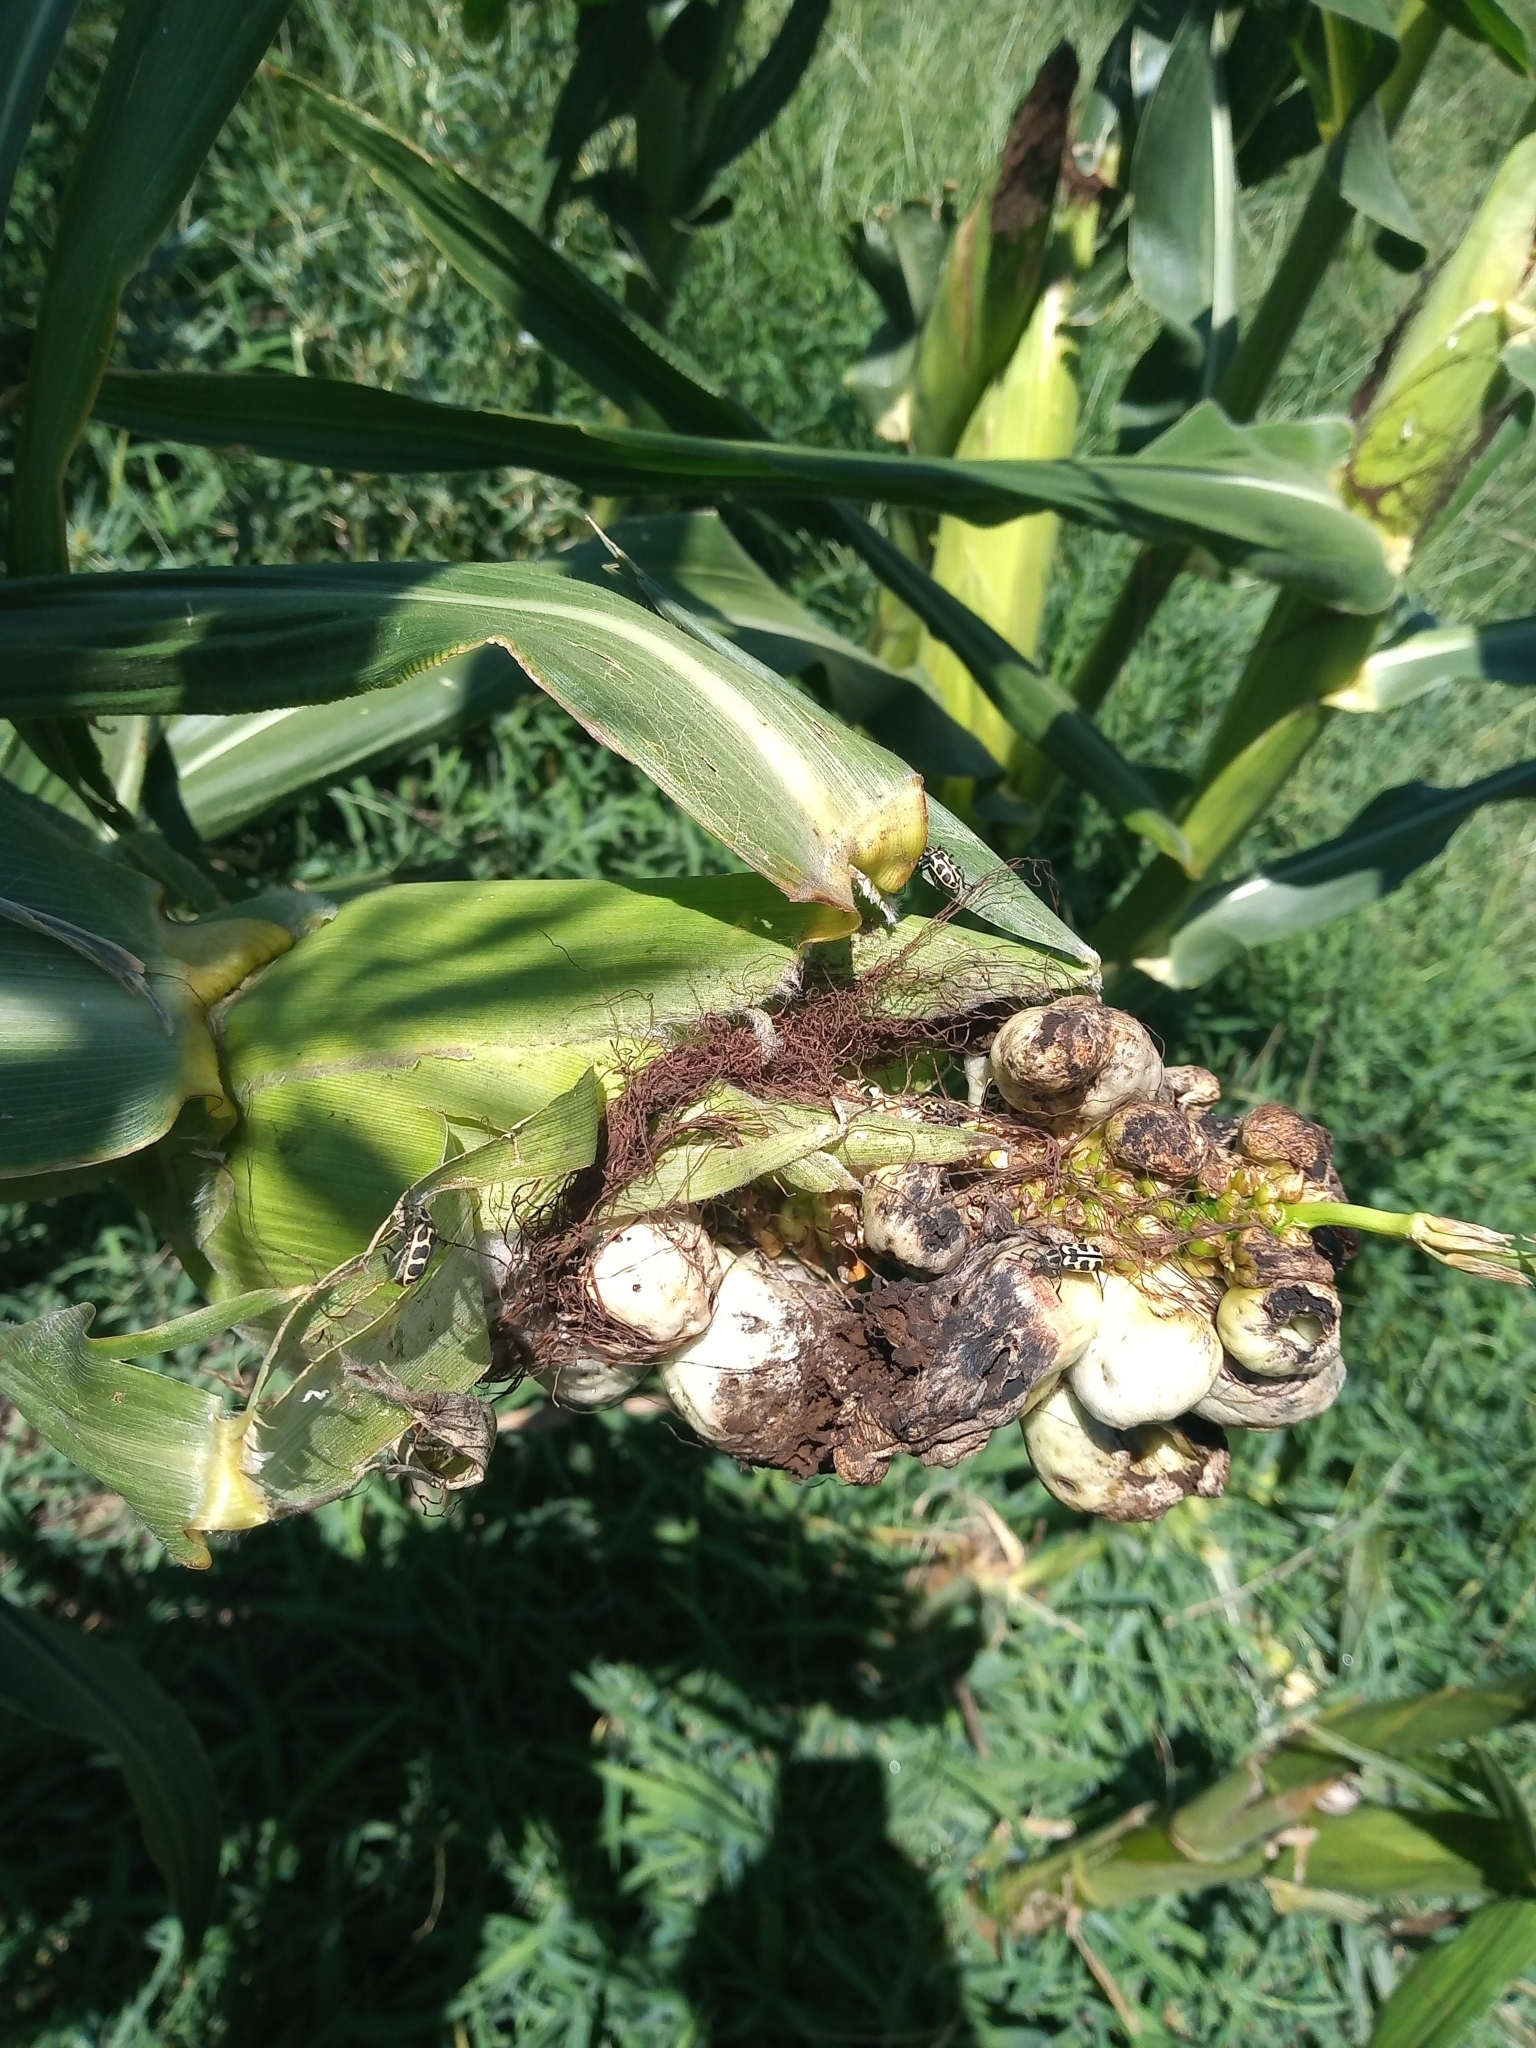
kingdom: Animalia
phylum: Arthropoda
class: Insecta
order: Coleoptera
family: Melyridae
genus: Astylus
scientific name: Astylus atromaculatus
